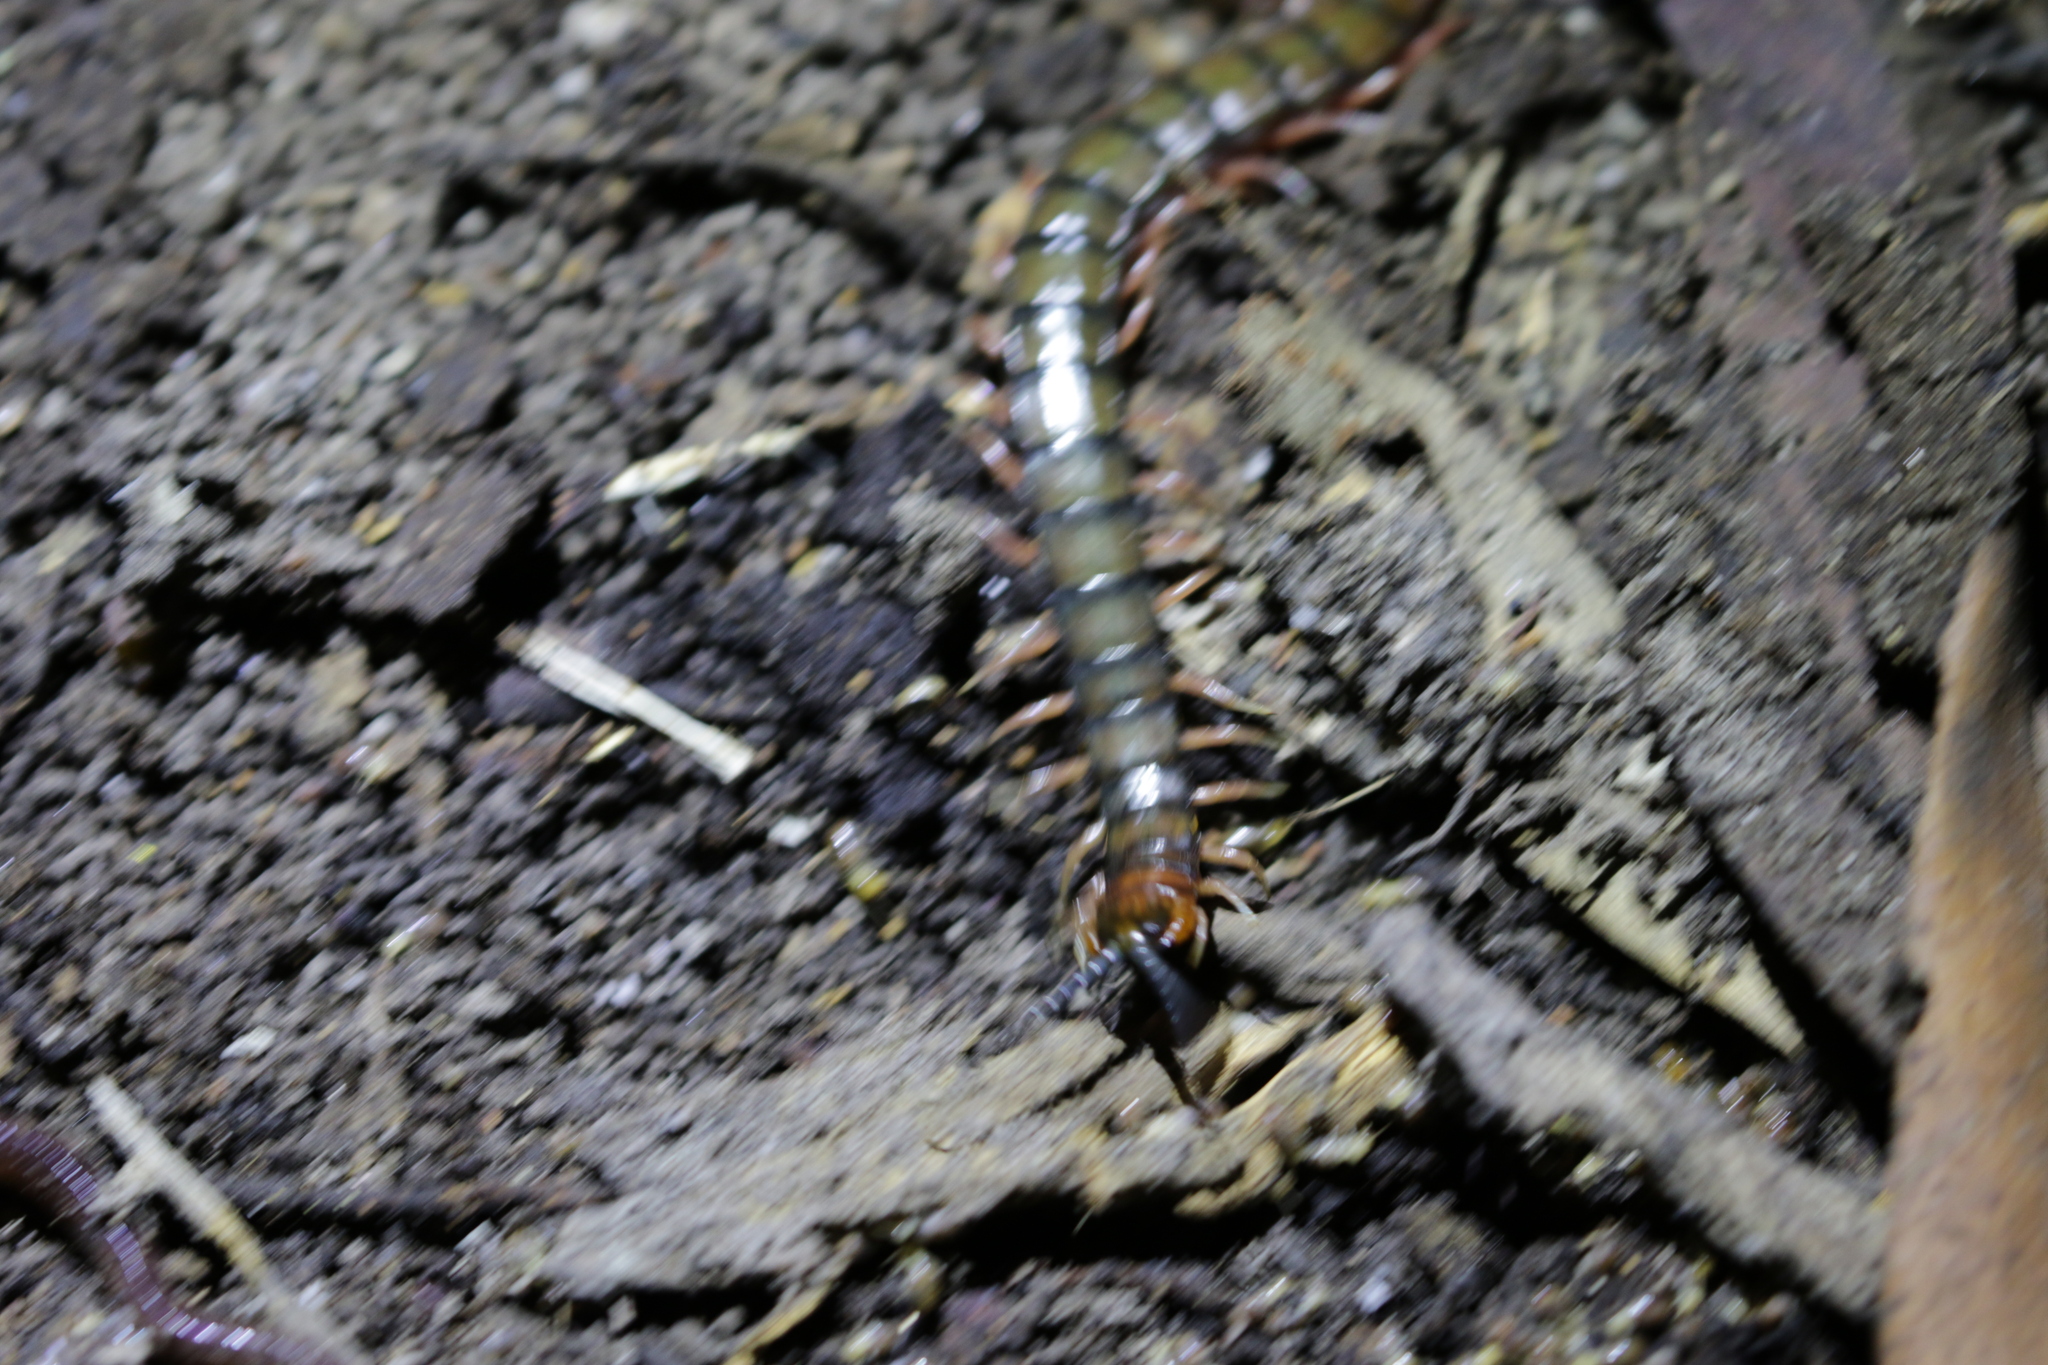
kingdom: Animalia
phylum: Arthropoda
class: Chilopoda
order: Scolopendromorpha
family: Scolopendridae
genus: Cormocephalus
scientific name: Cormocephalus aurantiipes
